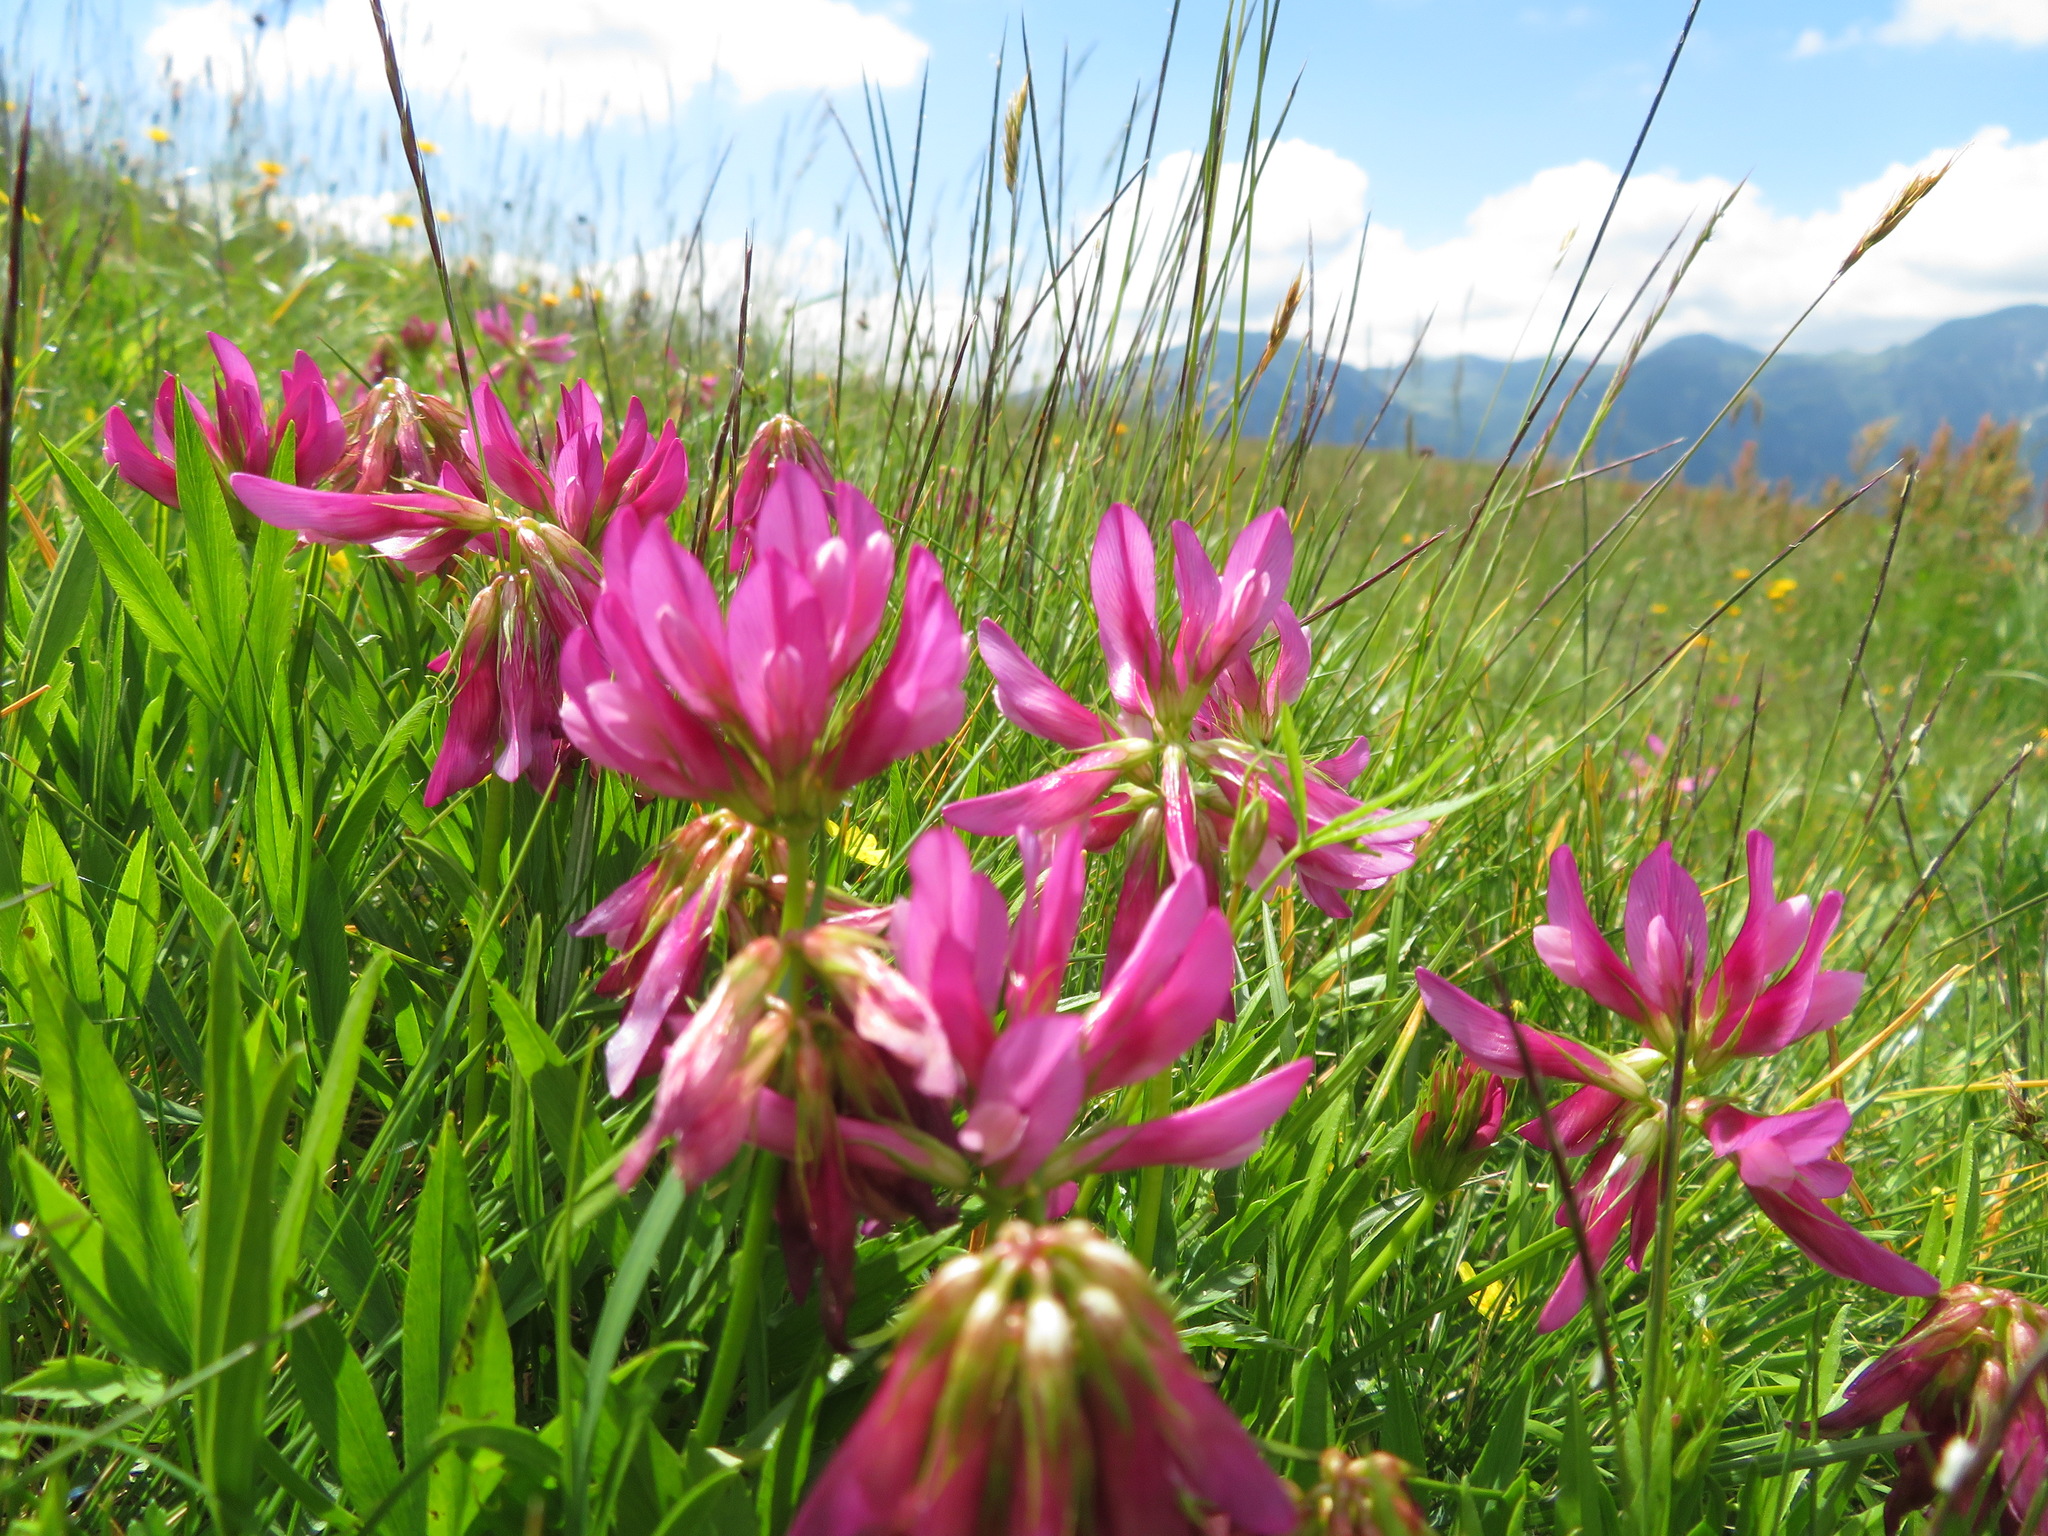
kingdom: Plantae
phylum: Tracheophyta
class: Magnoliopsida
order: Fabales
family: Fabaceae
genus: Trifolium
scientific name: Trifolium alpinum
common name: Alpine clover
